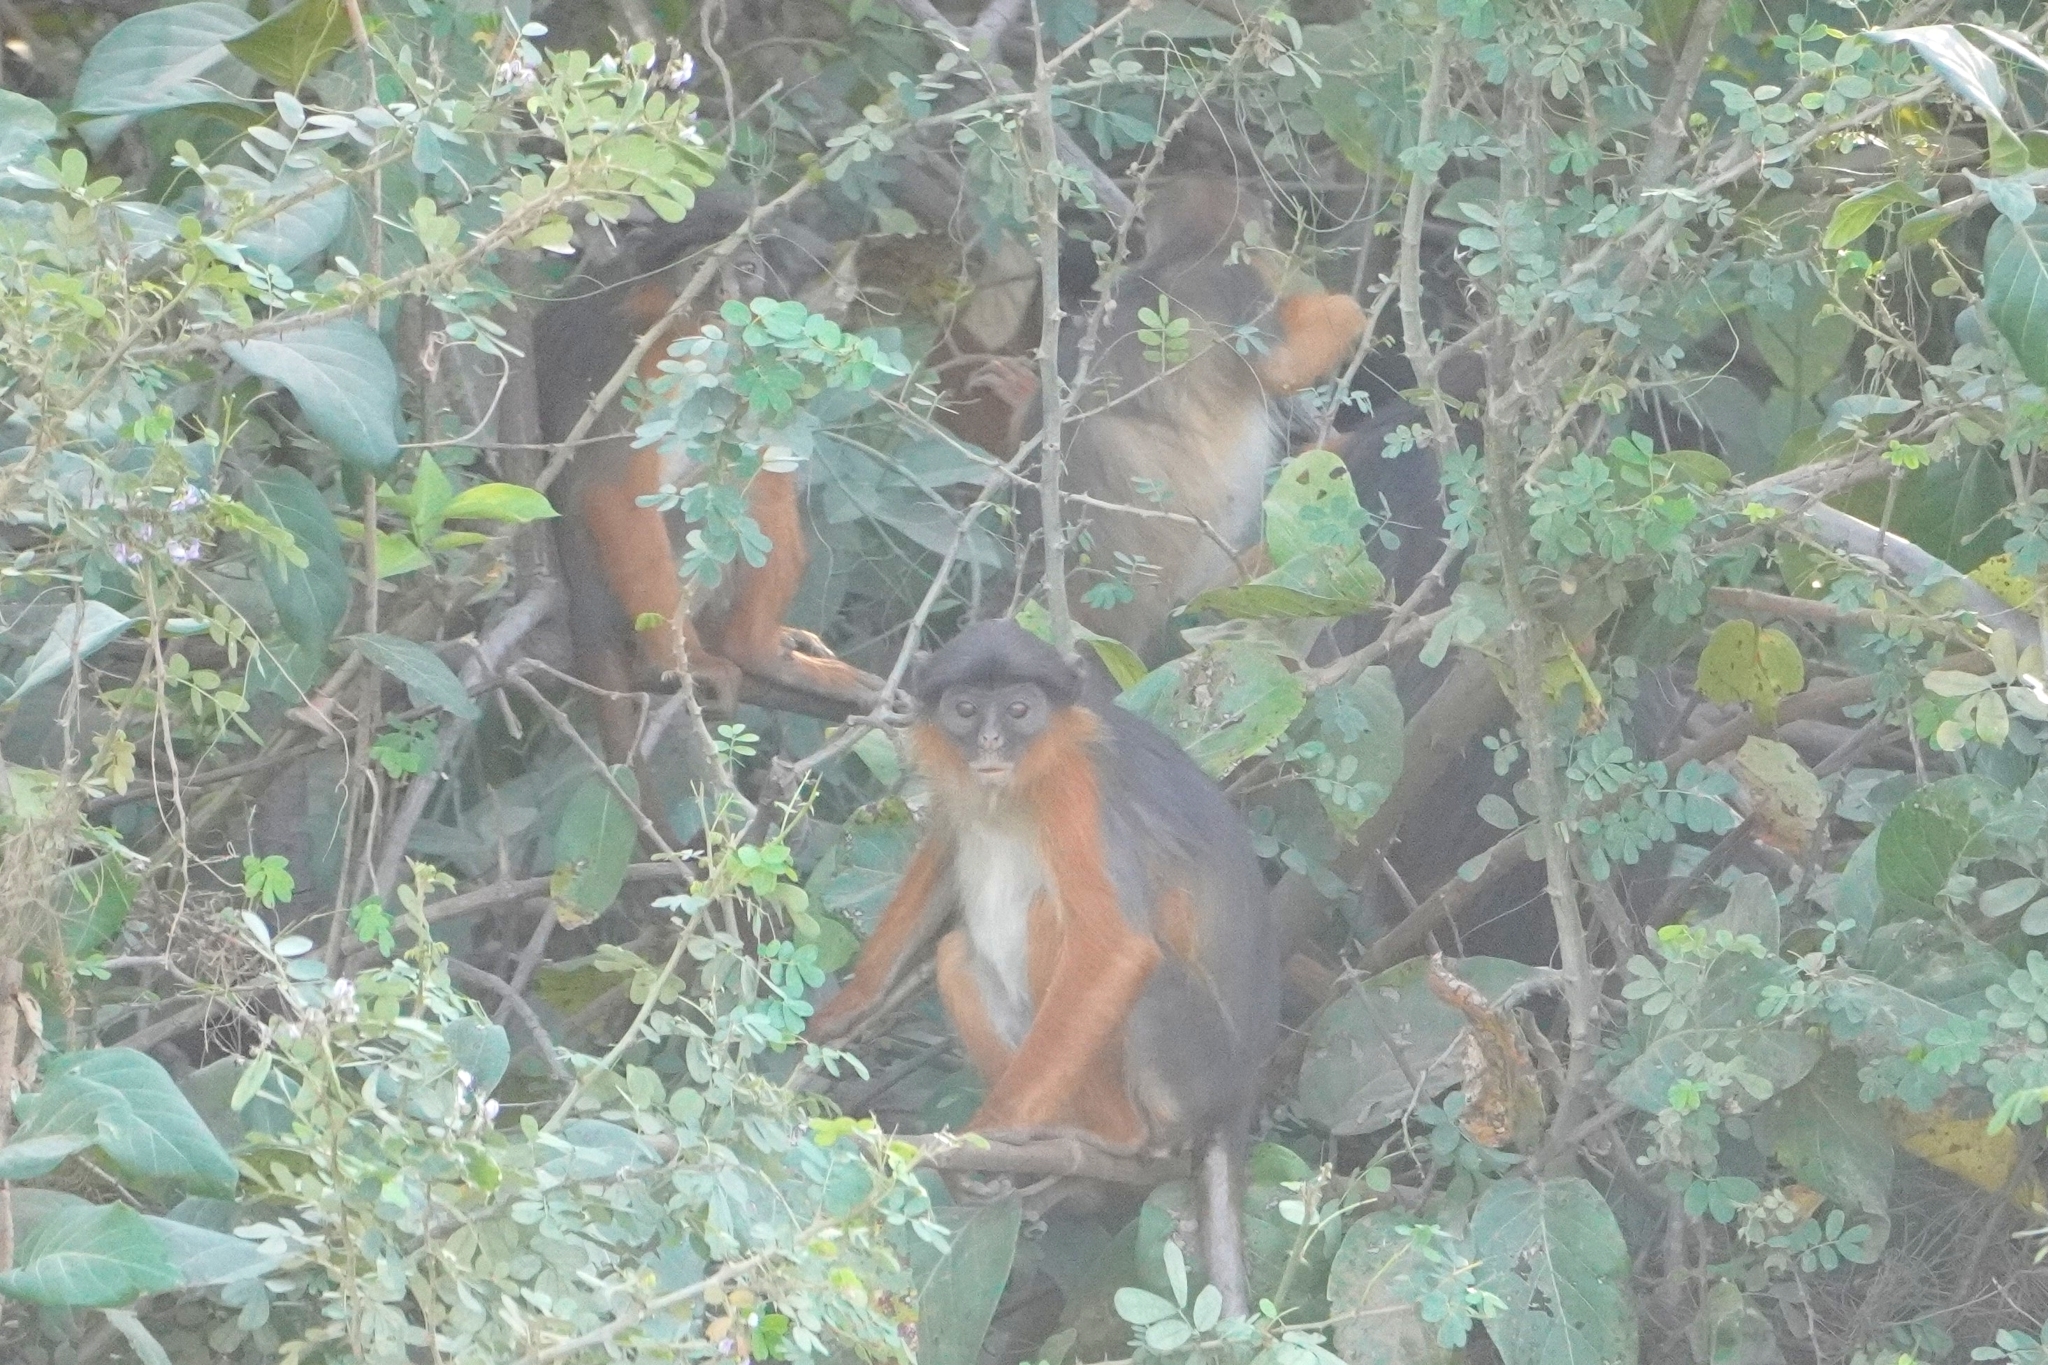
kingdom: Animalia
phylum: Chordata
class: Mammalia
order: Primates
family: Cercopithecidae
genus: Piliocolobus
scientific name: Piliocolobus badius
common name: Western red colobus
